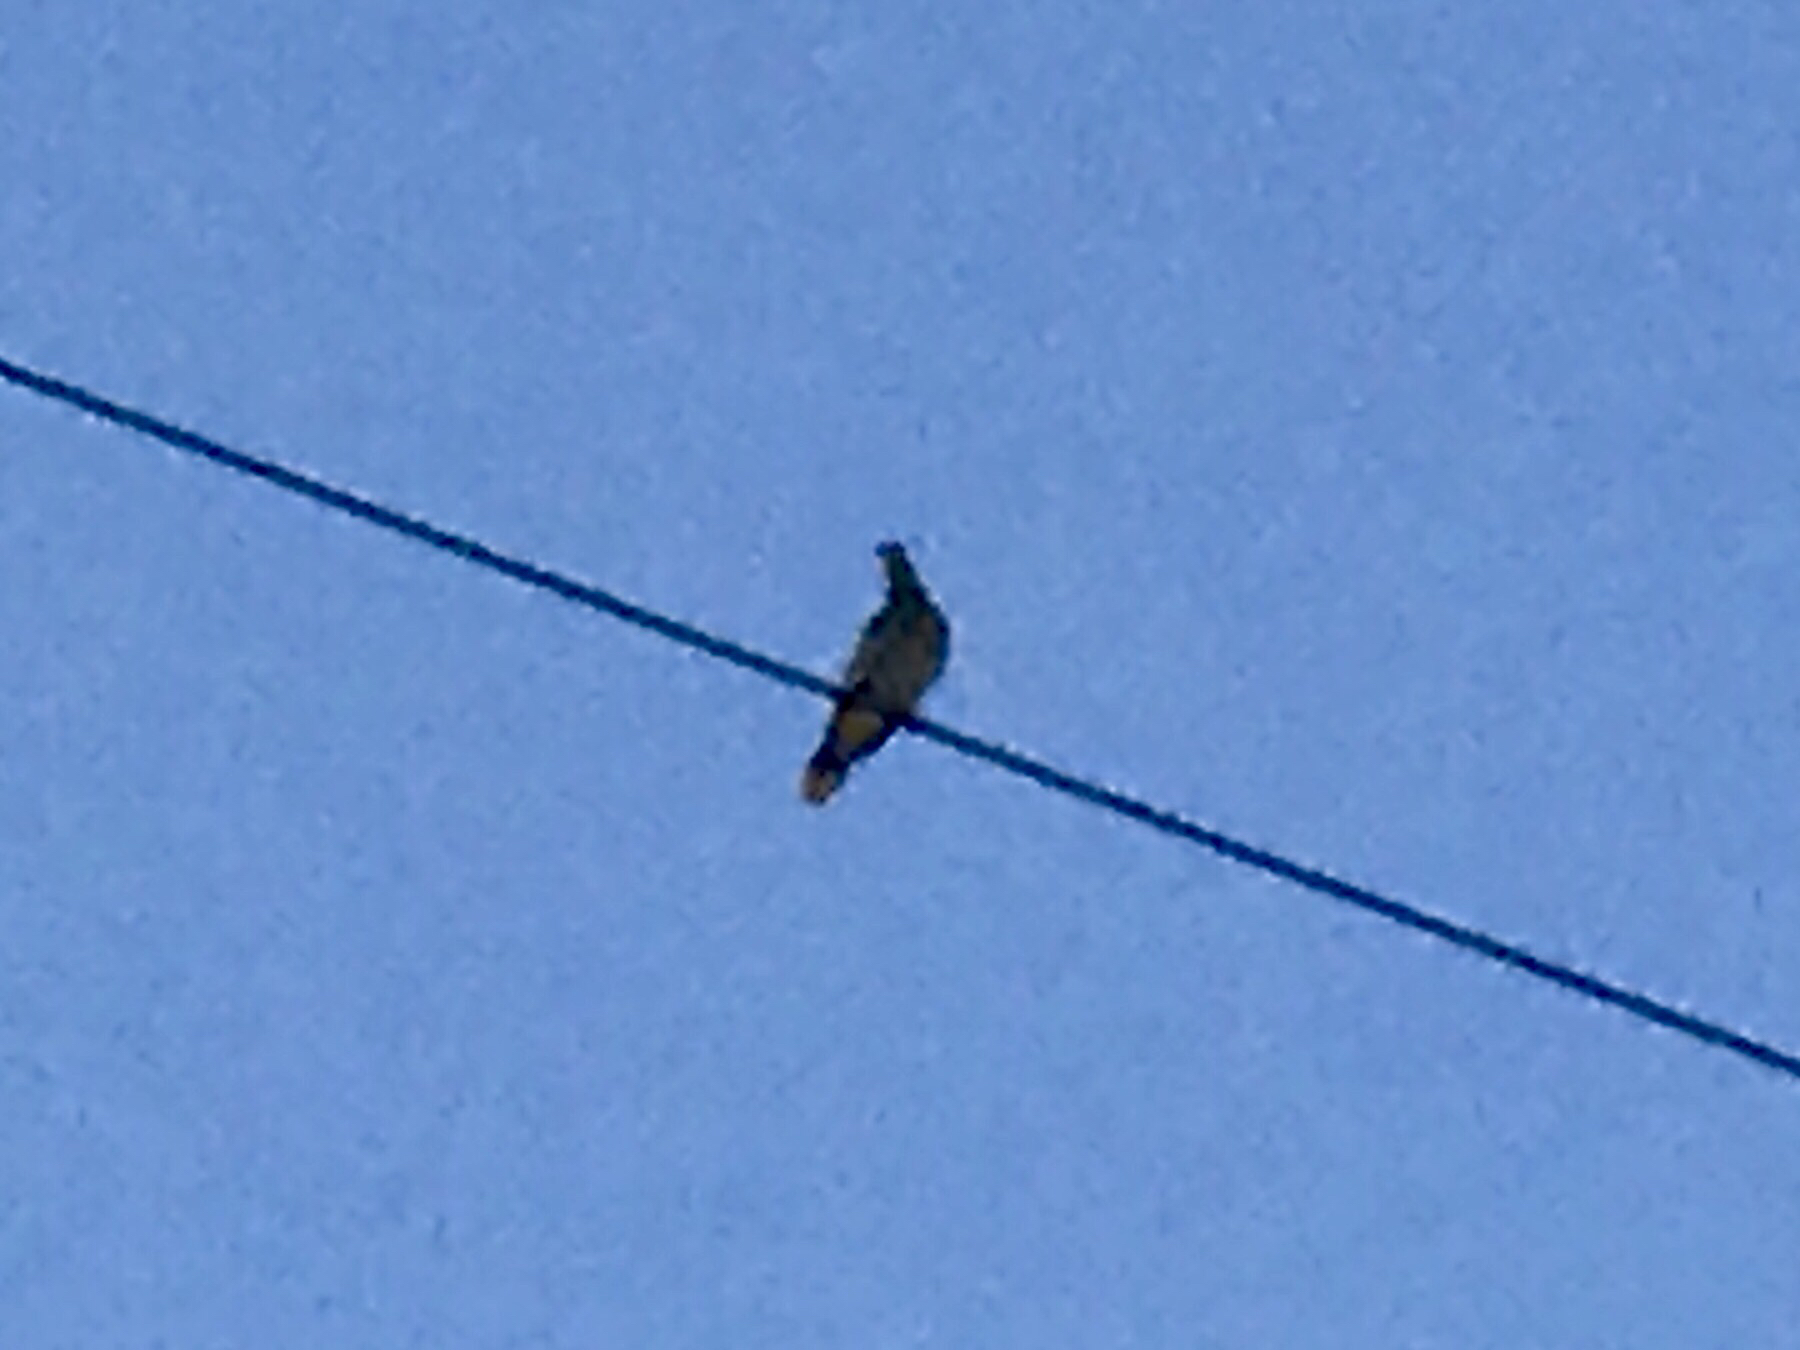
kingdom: Animalia
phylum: Chordata
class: Aves
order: Columbiformes
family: Columbidae
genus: Zenaida
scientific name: Zenaida asiatica
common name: White-winged dove
